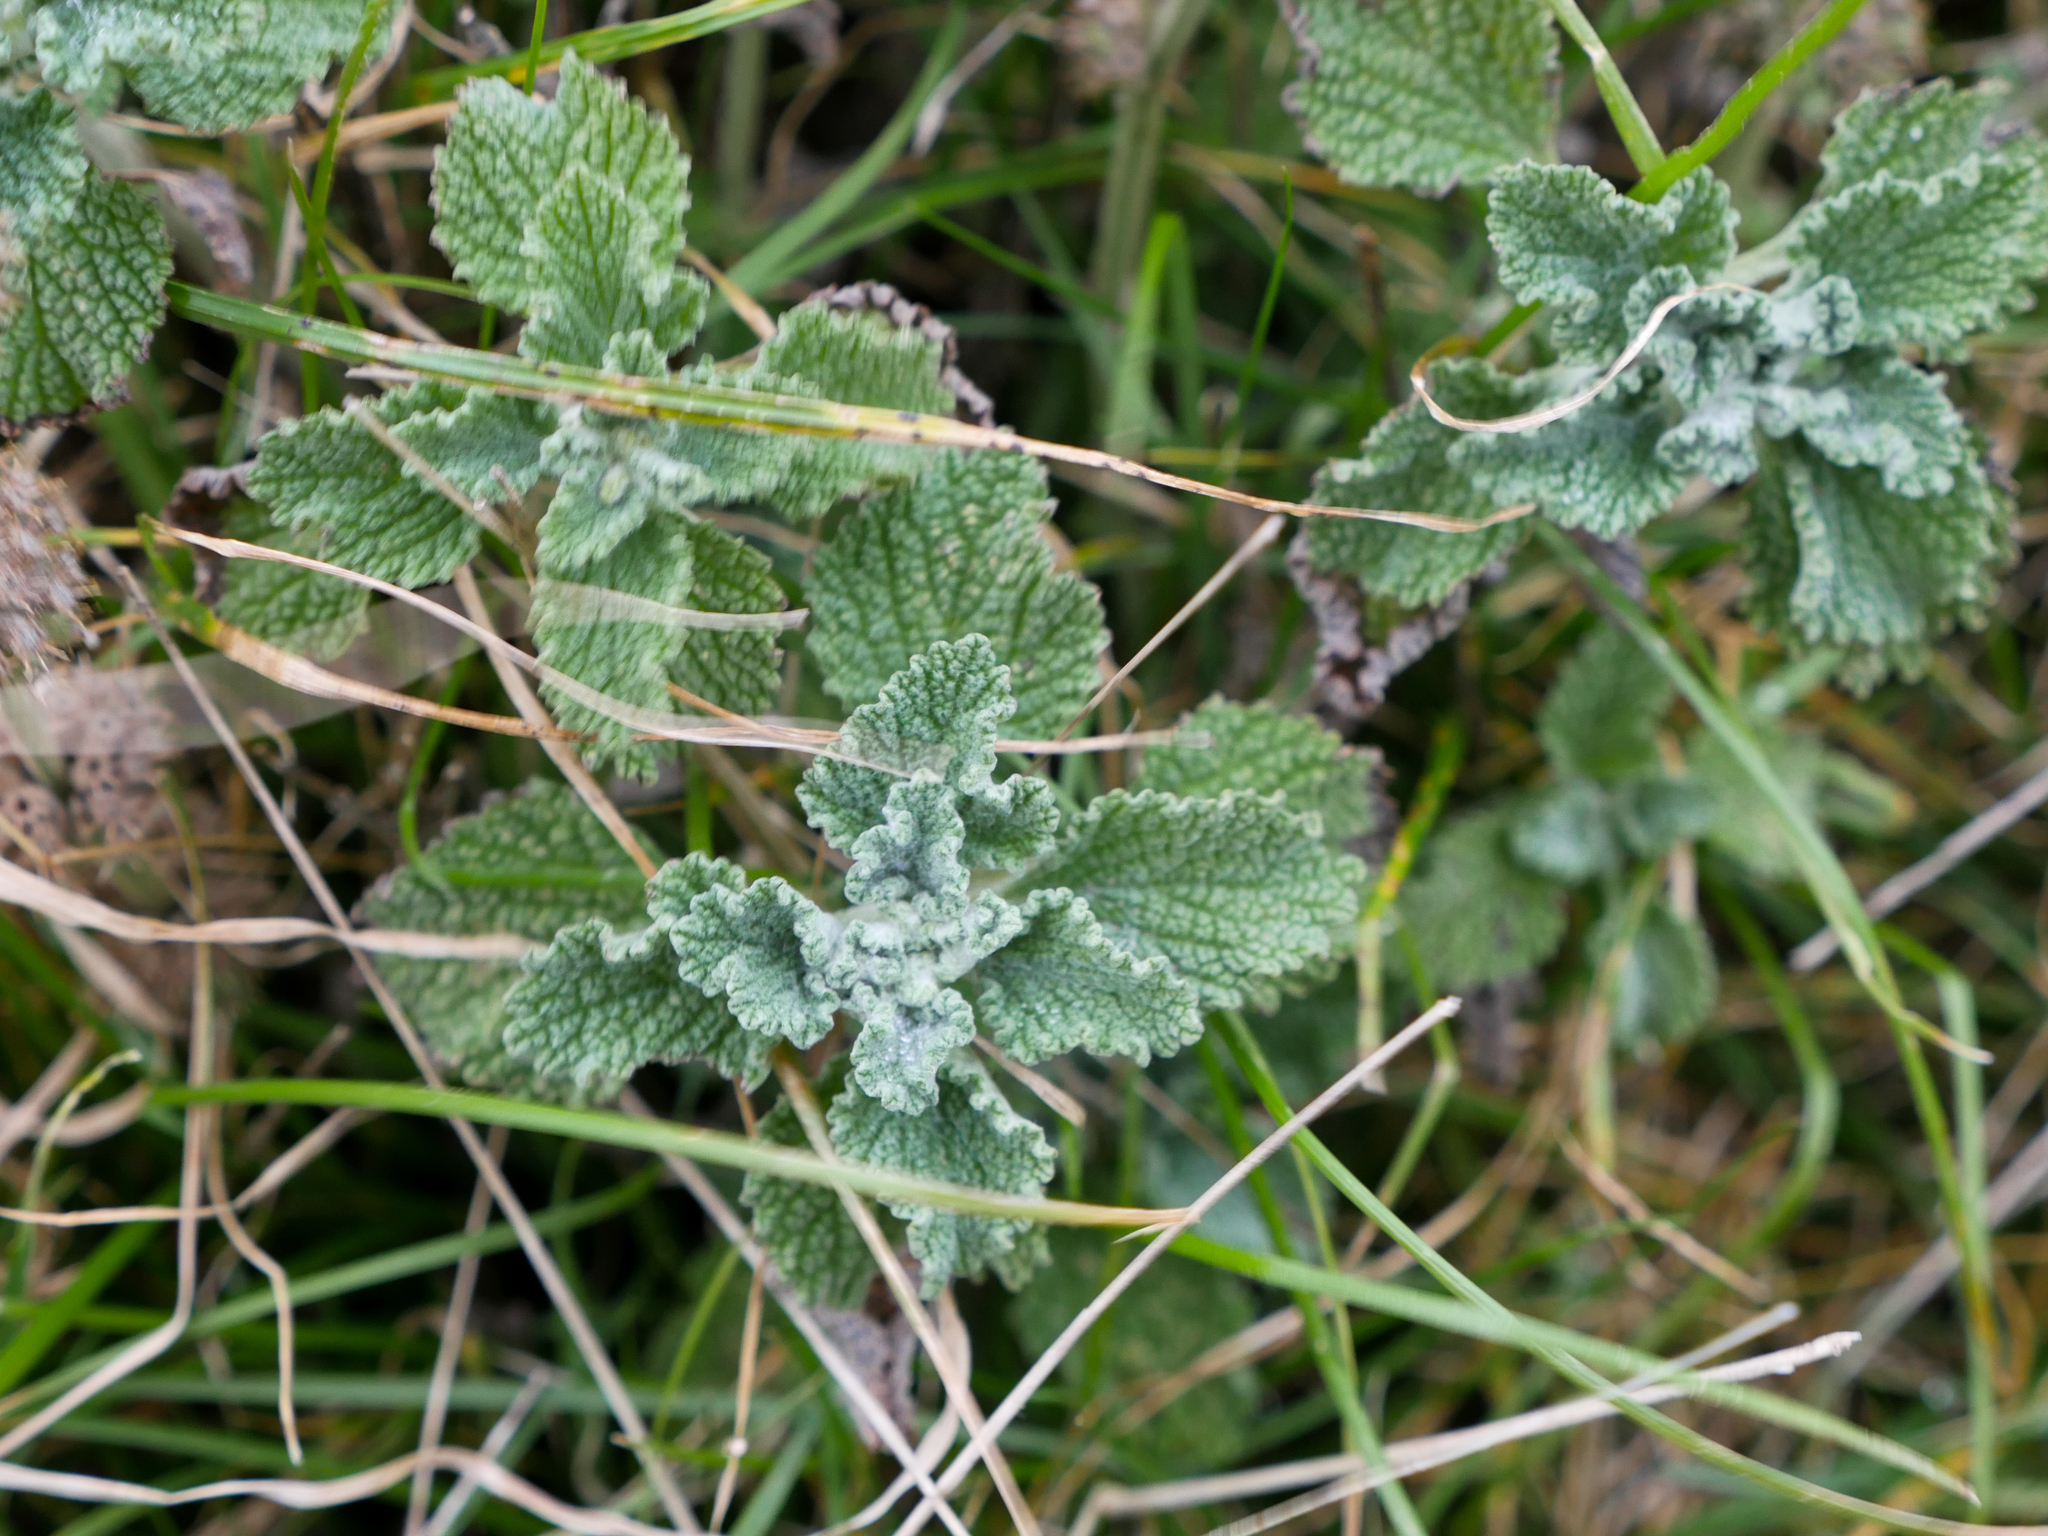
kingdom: Plantae
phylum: Tracheophyta
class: Magnoliopsida
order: Lamiales
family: Lamiaceae
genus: Marrubium
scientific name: Marrubium vulgare
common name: Horehound
